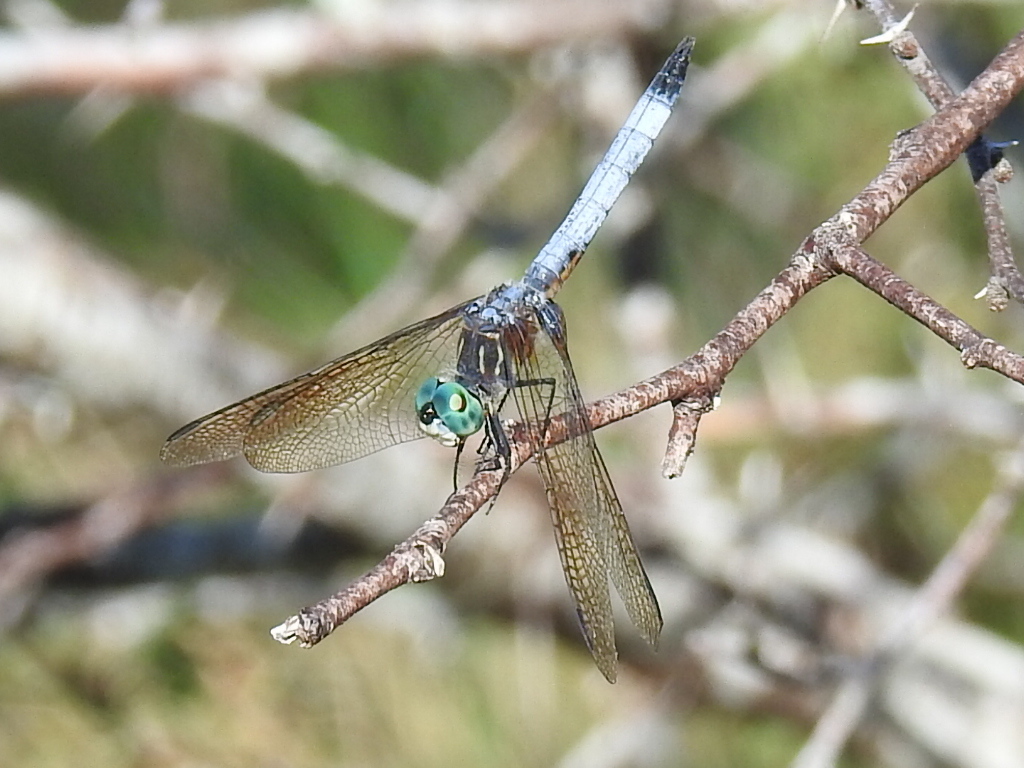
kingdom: Animalia
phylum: Arthropoda
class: Insecta
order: Odonata
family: Libellulidae
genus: Pachydiplax
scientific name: Pachydiplax longipennis
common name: Blue dasher
